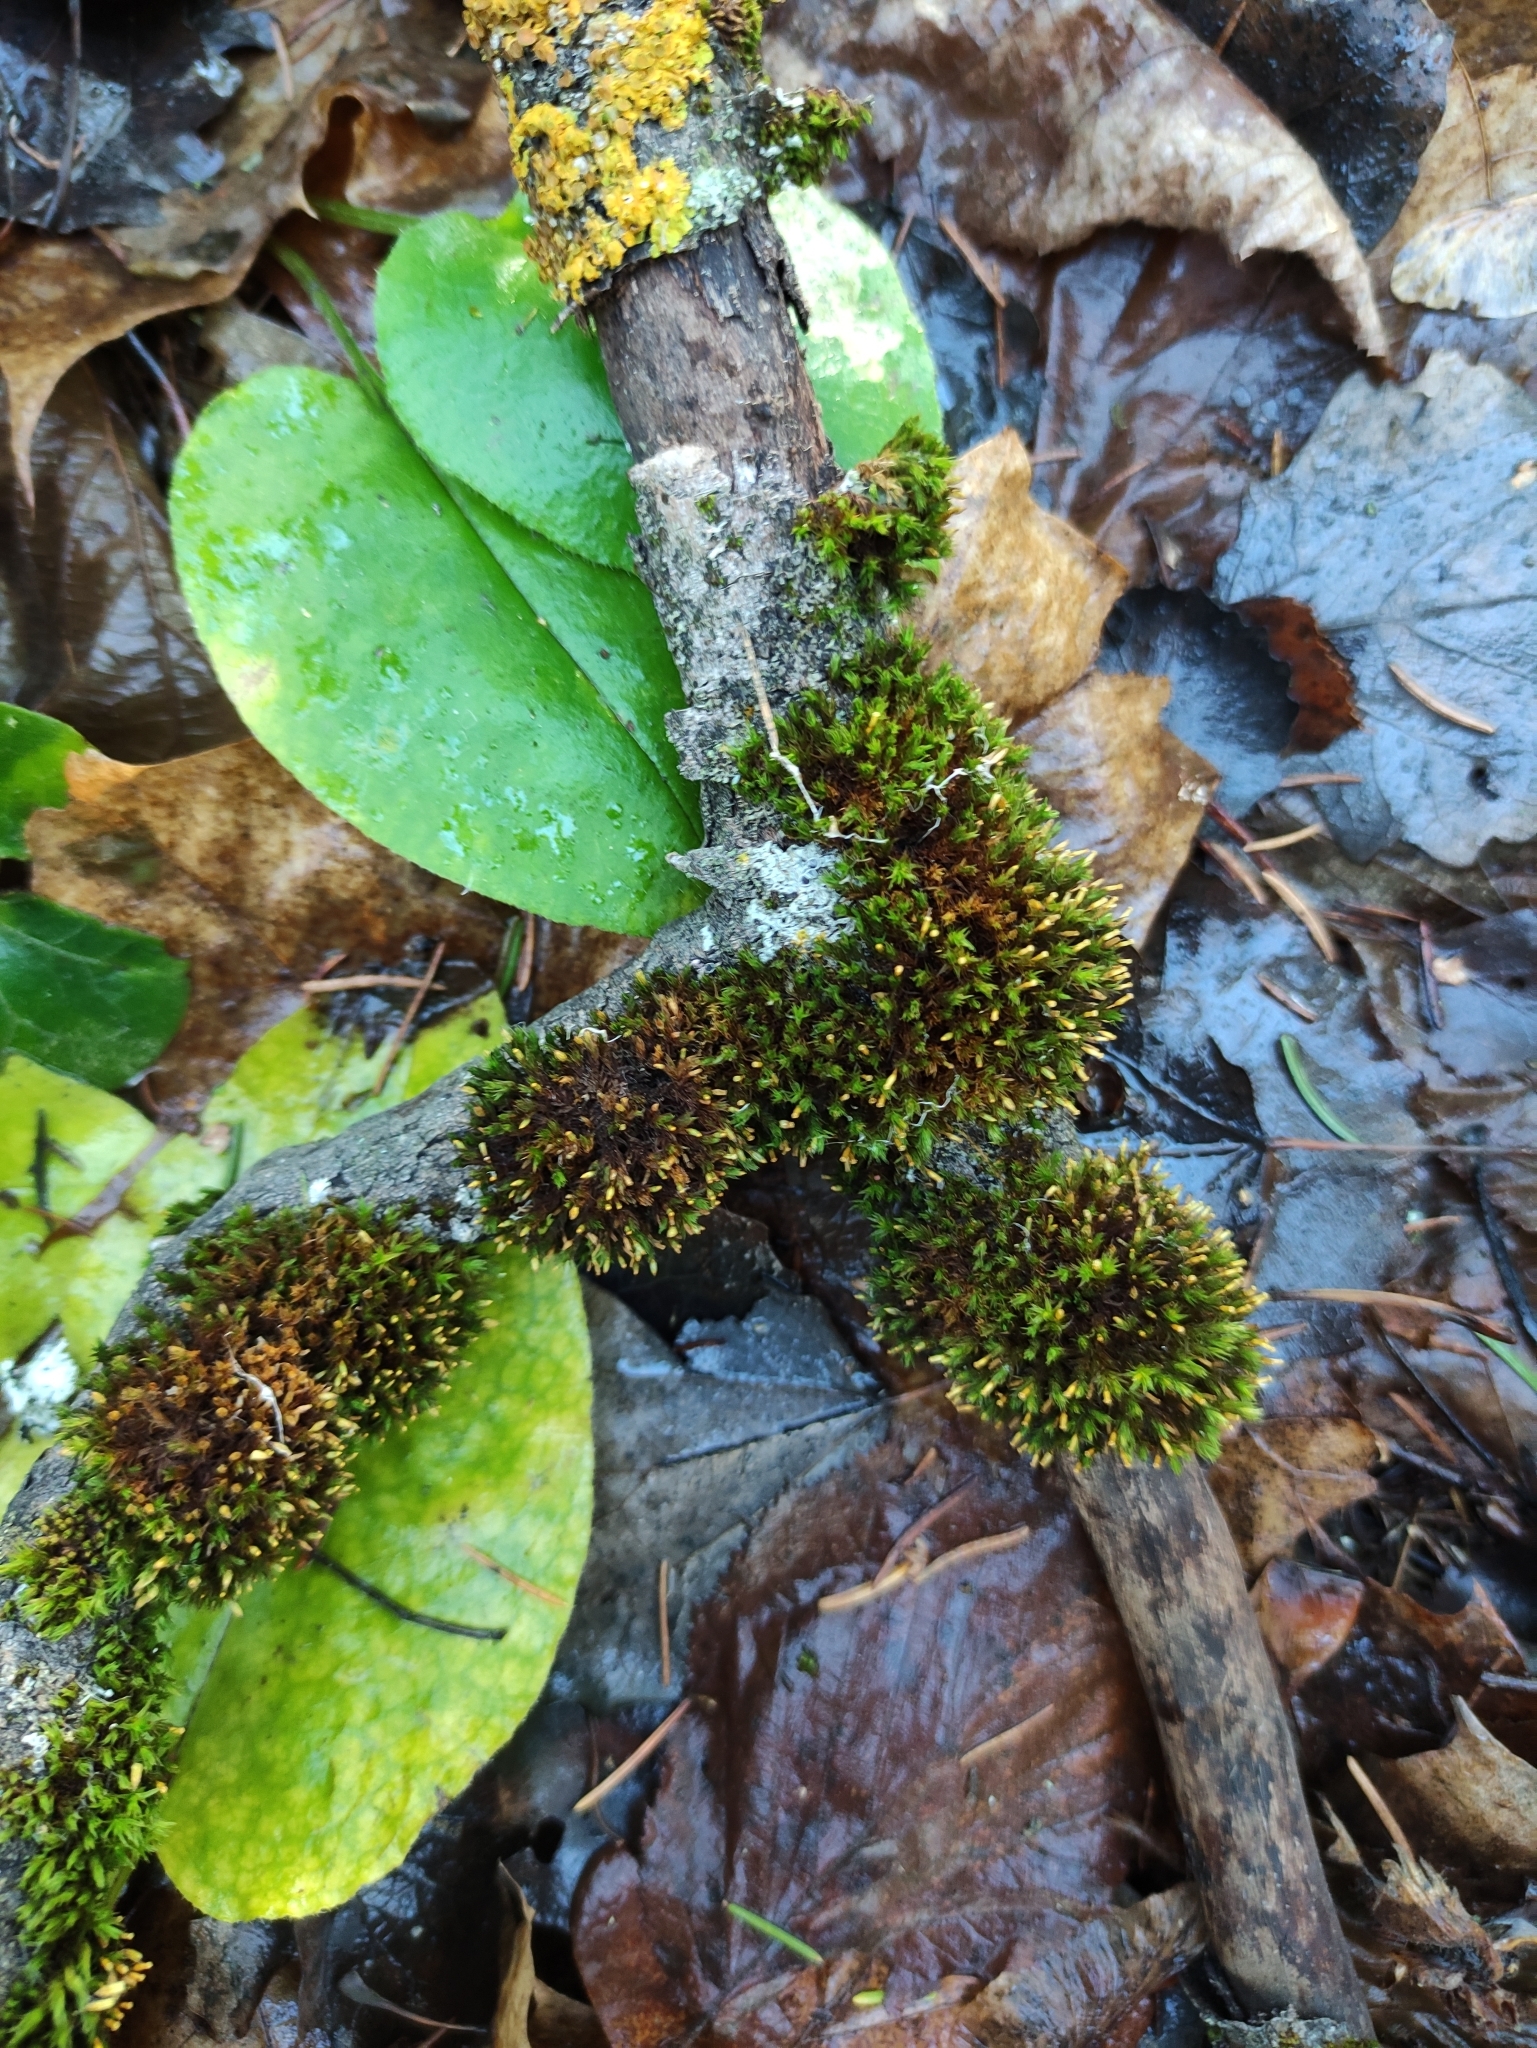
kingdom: Plantae
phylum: Bryophyta
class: Bryopsida
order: Orthotrichales
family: Orthotrichaceae
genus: Lewinskya
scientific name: Lewinskya elegans
